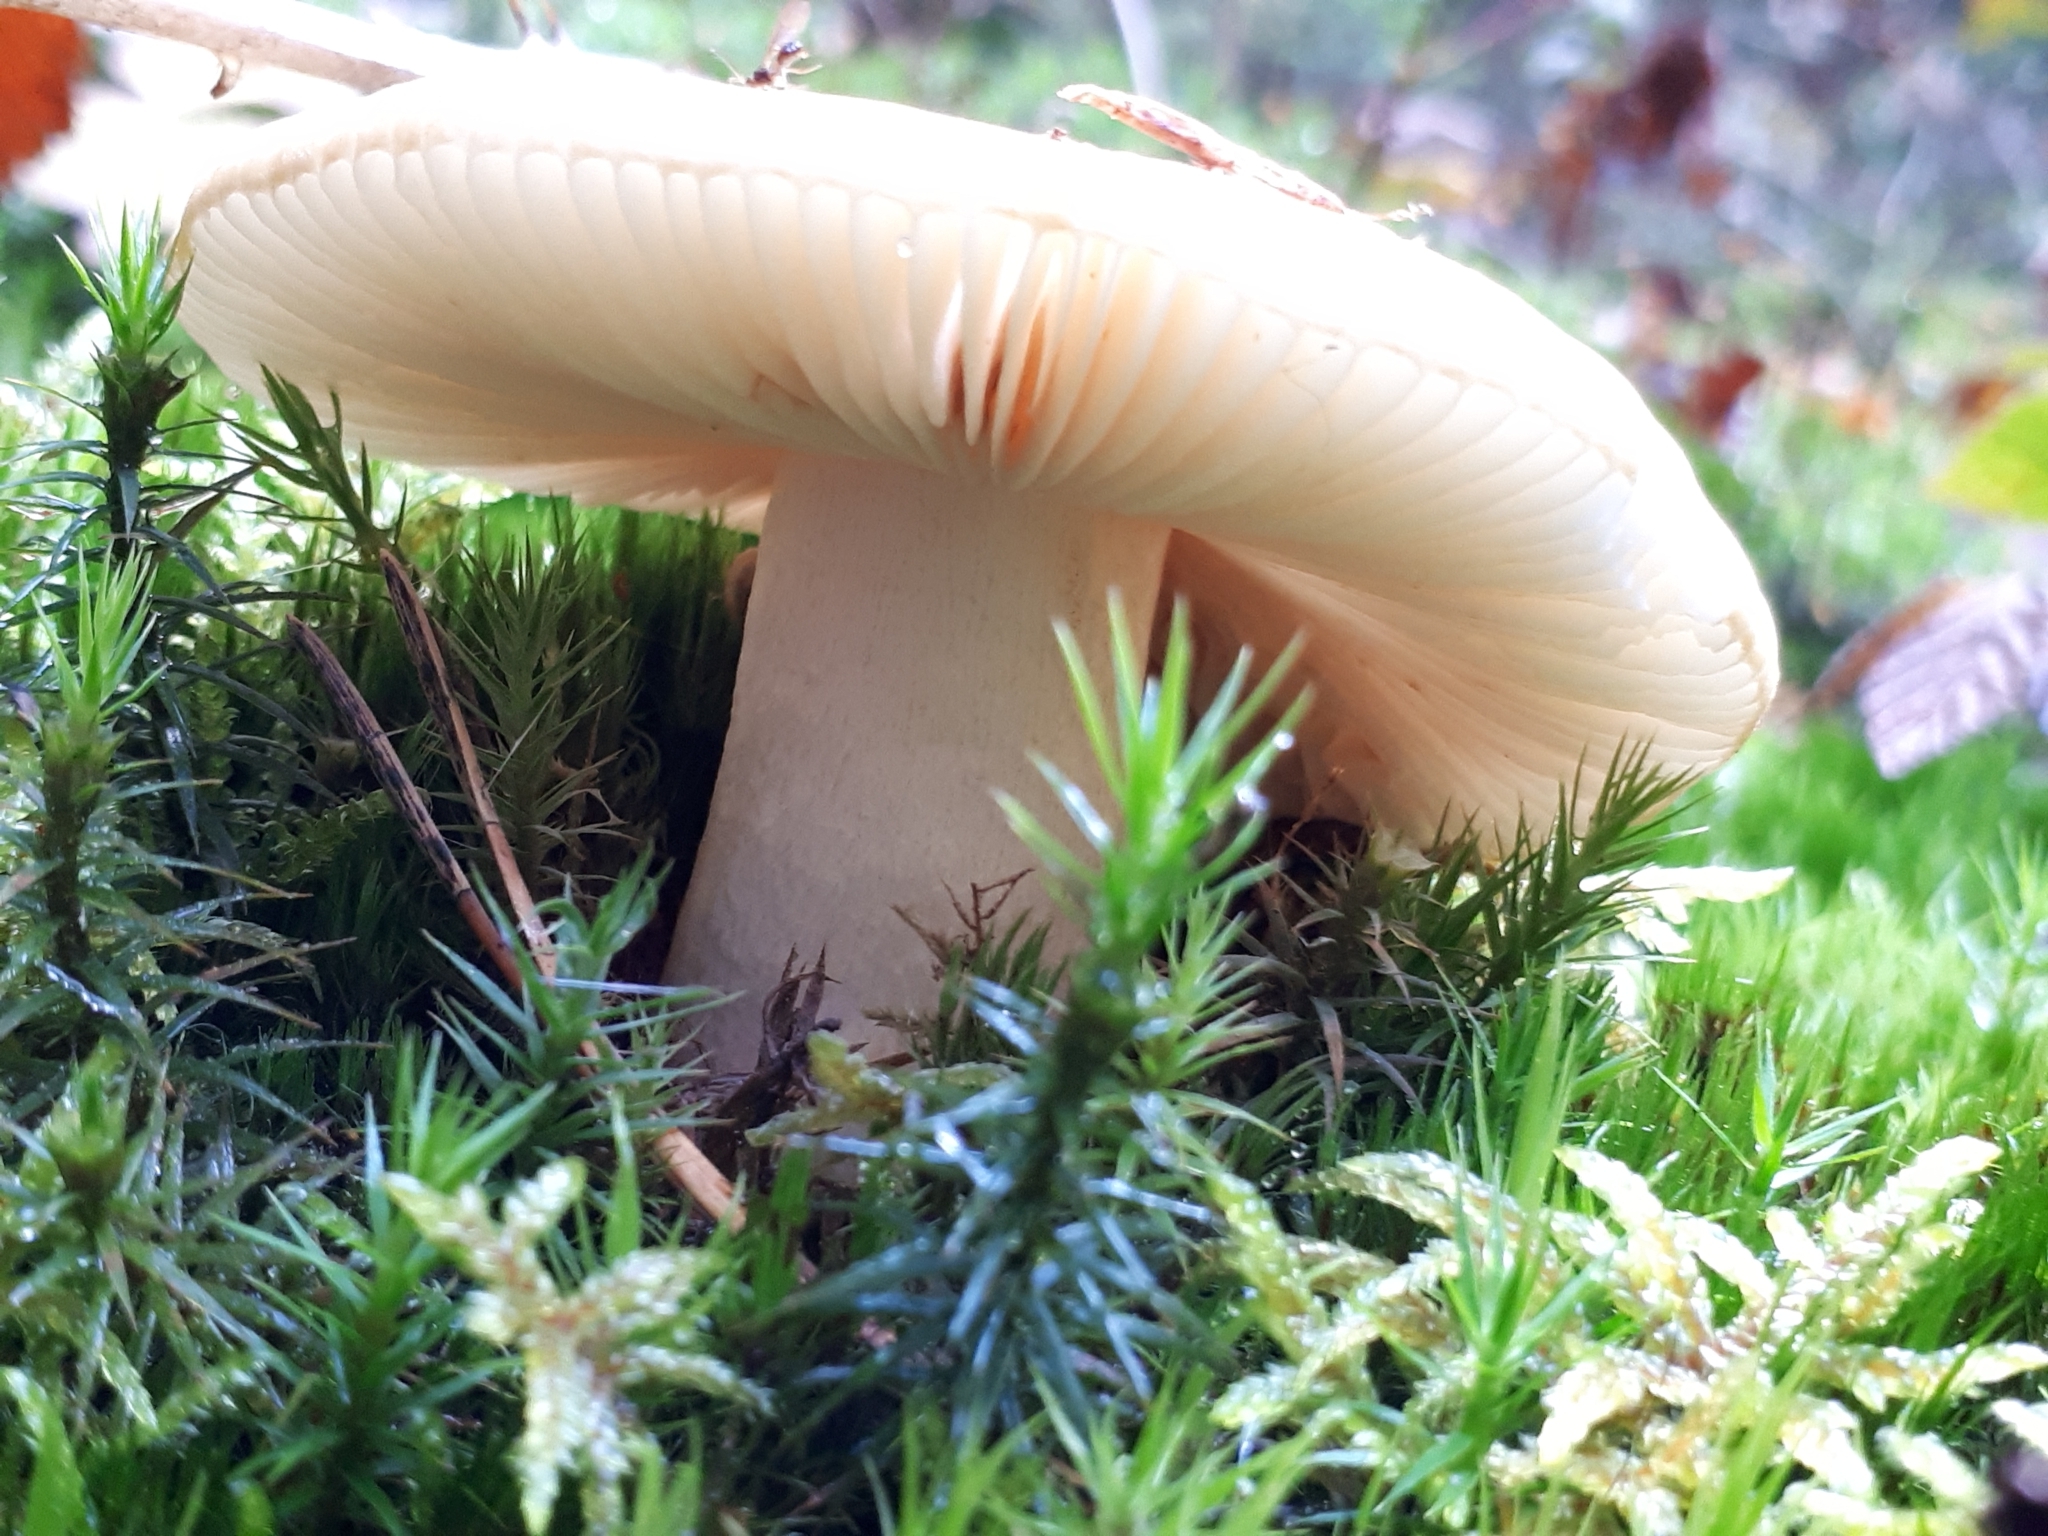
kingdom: Fungi
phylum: Basidiomycota
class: Agaricomycetes
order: Russulales
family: Russulaceae
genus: Russula
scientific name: Russula ochroleuca
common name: Common yellow russula
